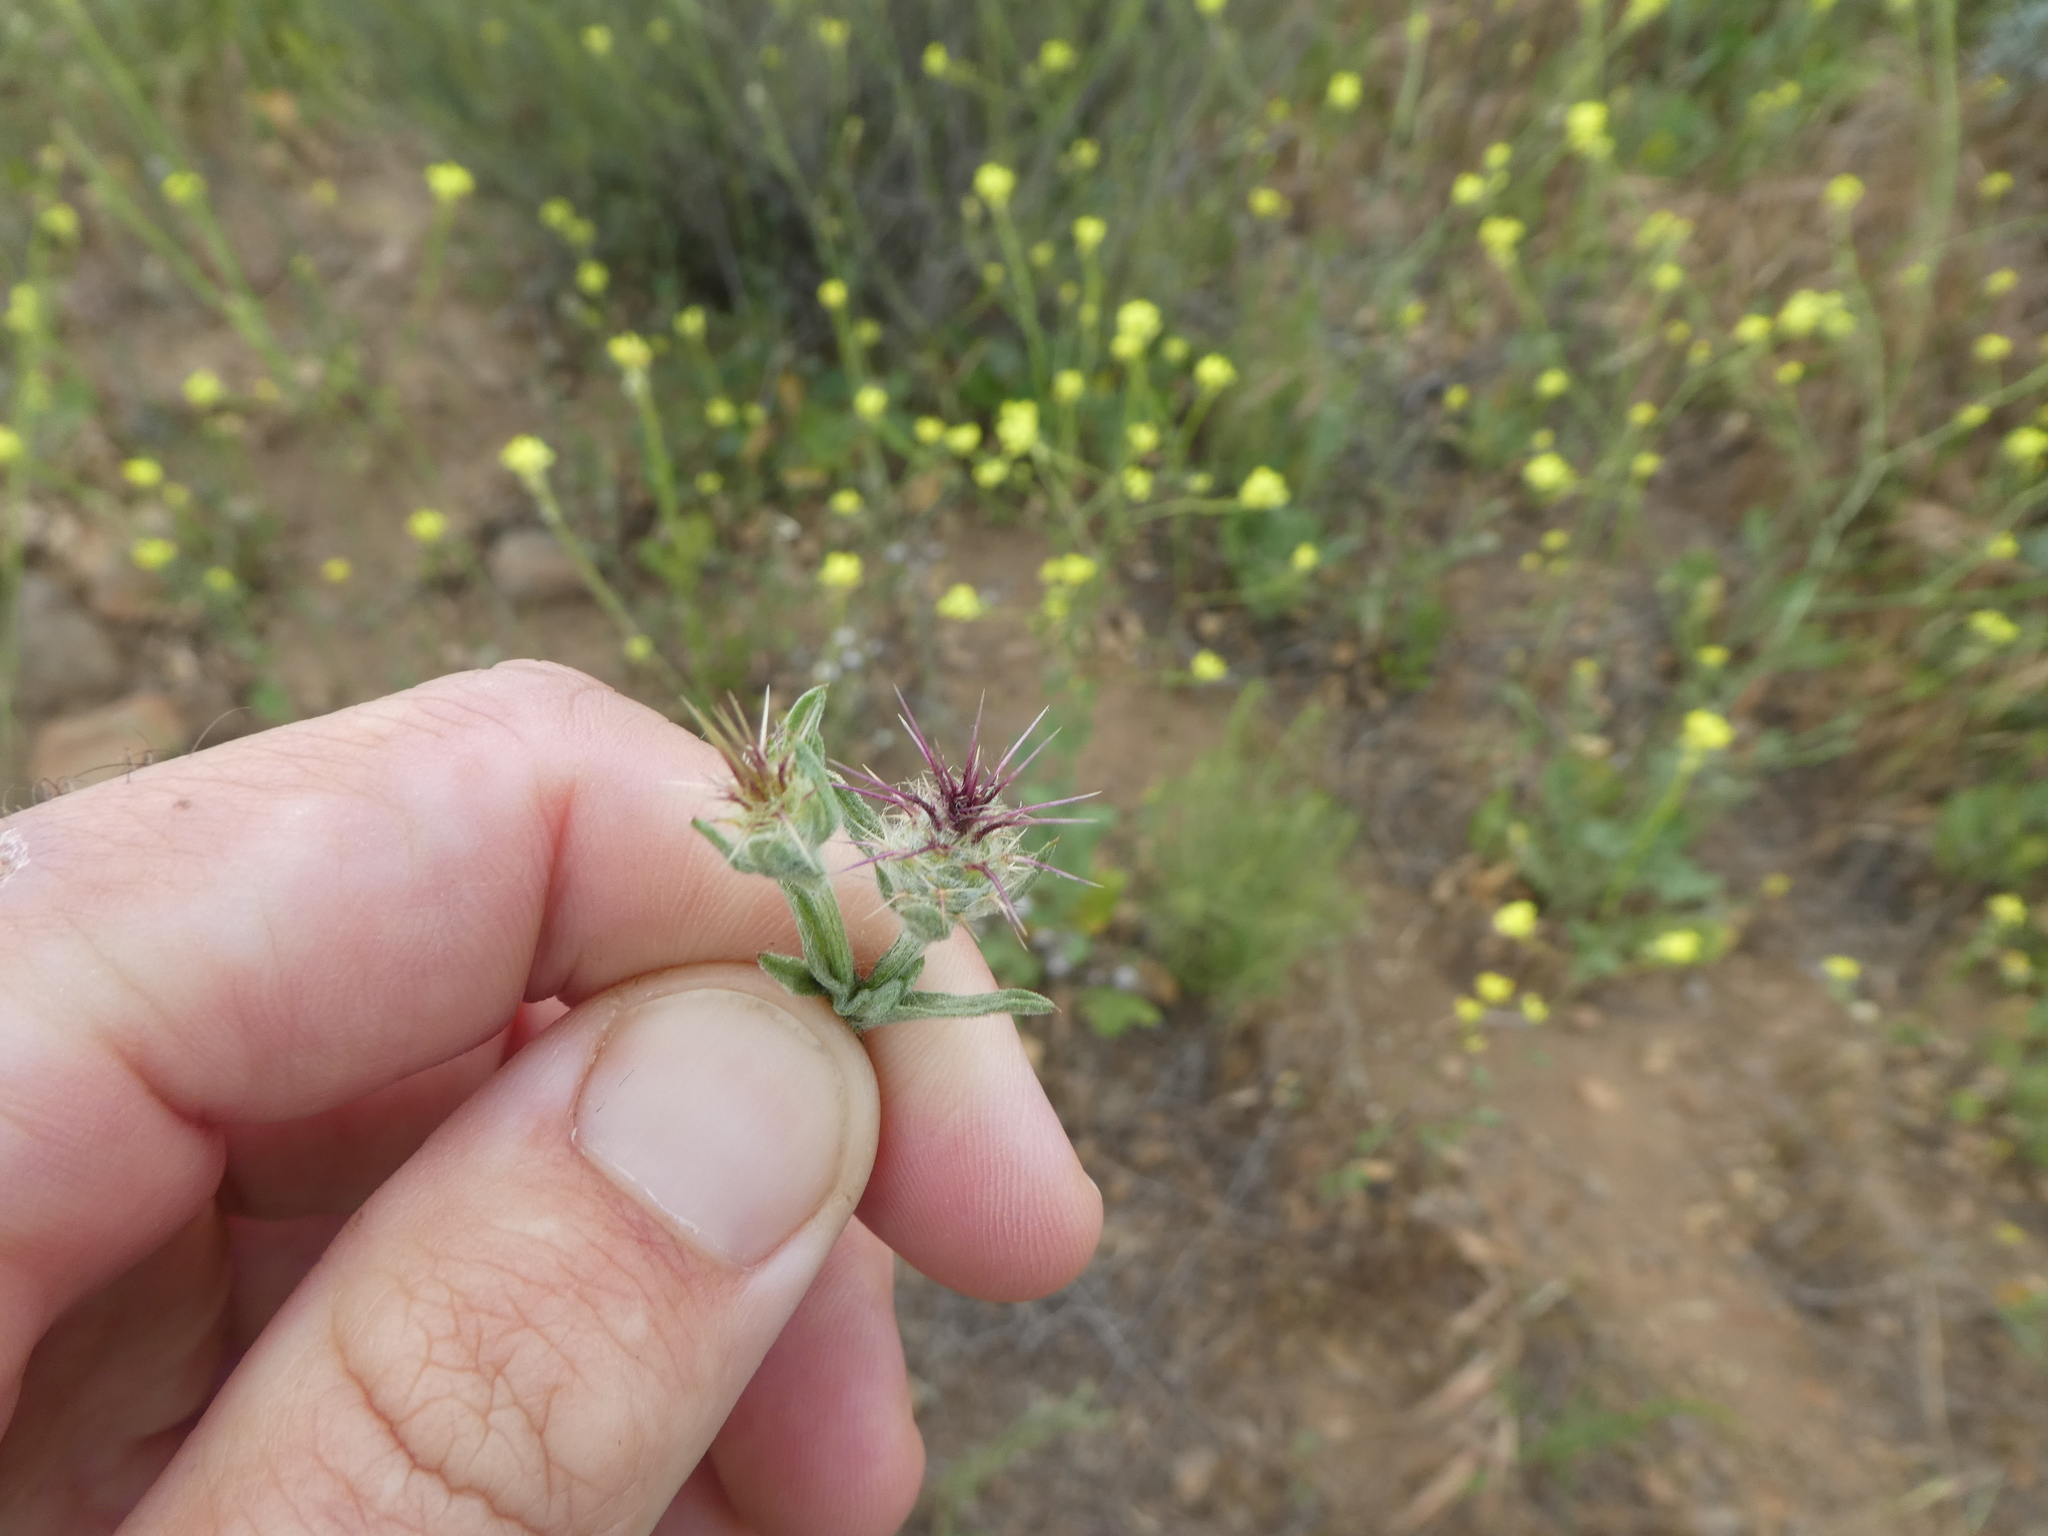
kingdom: Plantae
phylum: Tracheophyta
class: Magnoliopsida
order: Asterales
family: Asteraceae
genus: Centaurea
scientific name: Centaurea melitensis
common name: Maltese star-thistle
